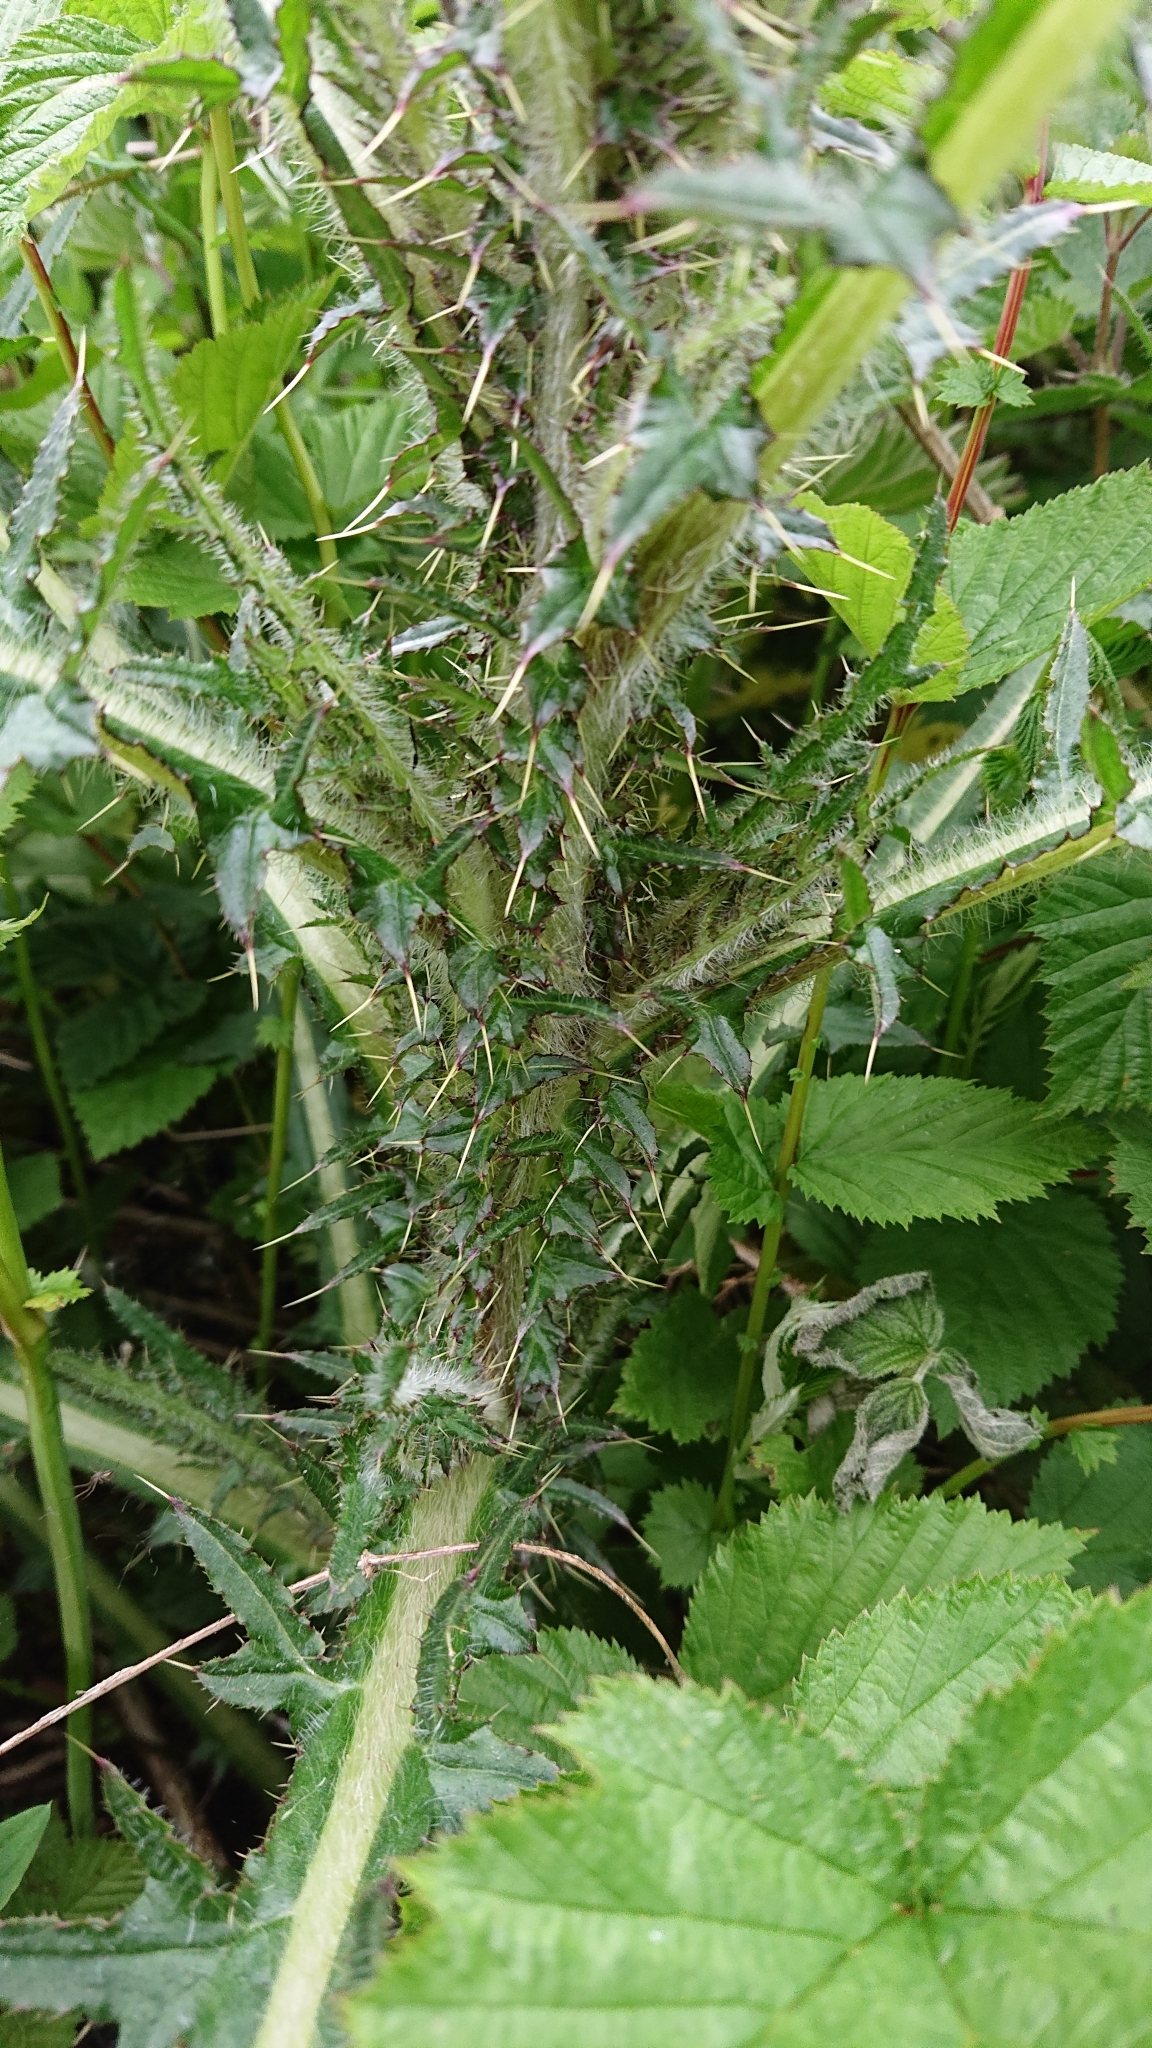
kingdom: Plantae
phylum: Tracheophyta
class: Magnoliopsida
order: Asterales
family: Asteraceae
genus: Cirsium
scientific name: Cirsium palustre
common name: Marsh thistle
